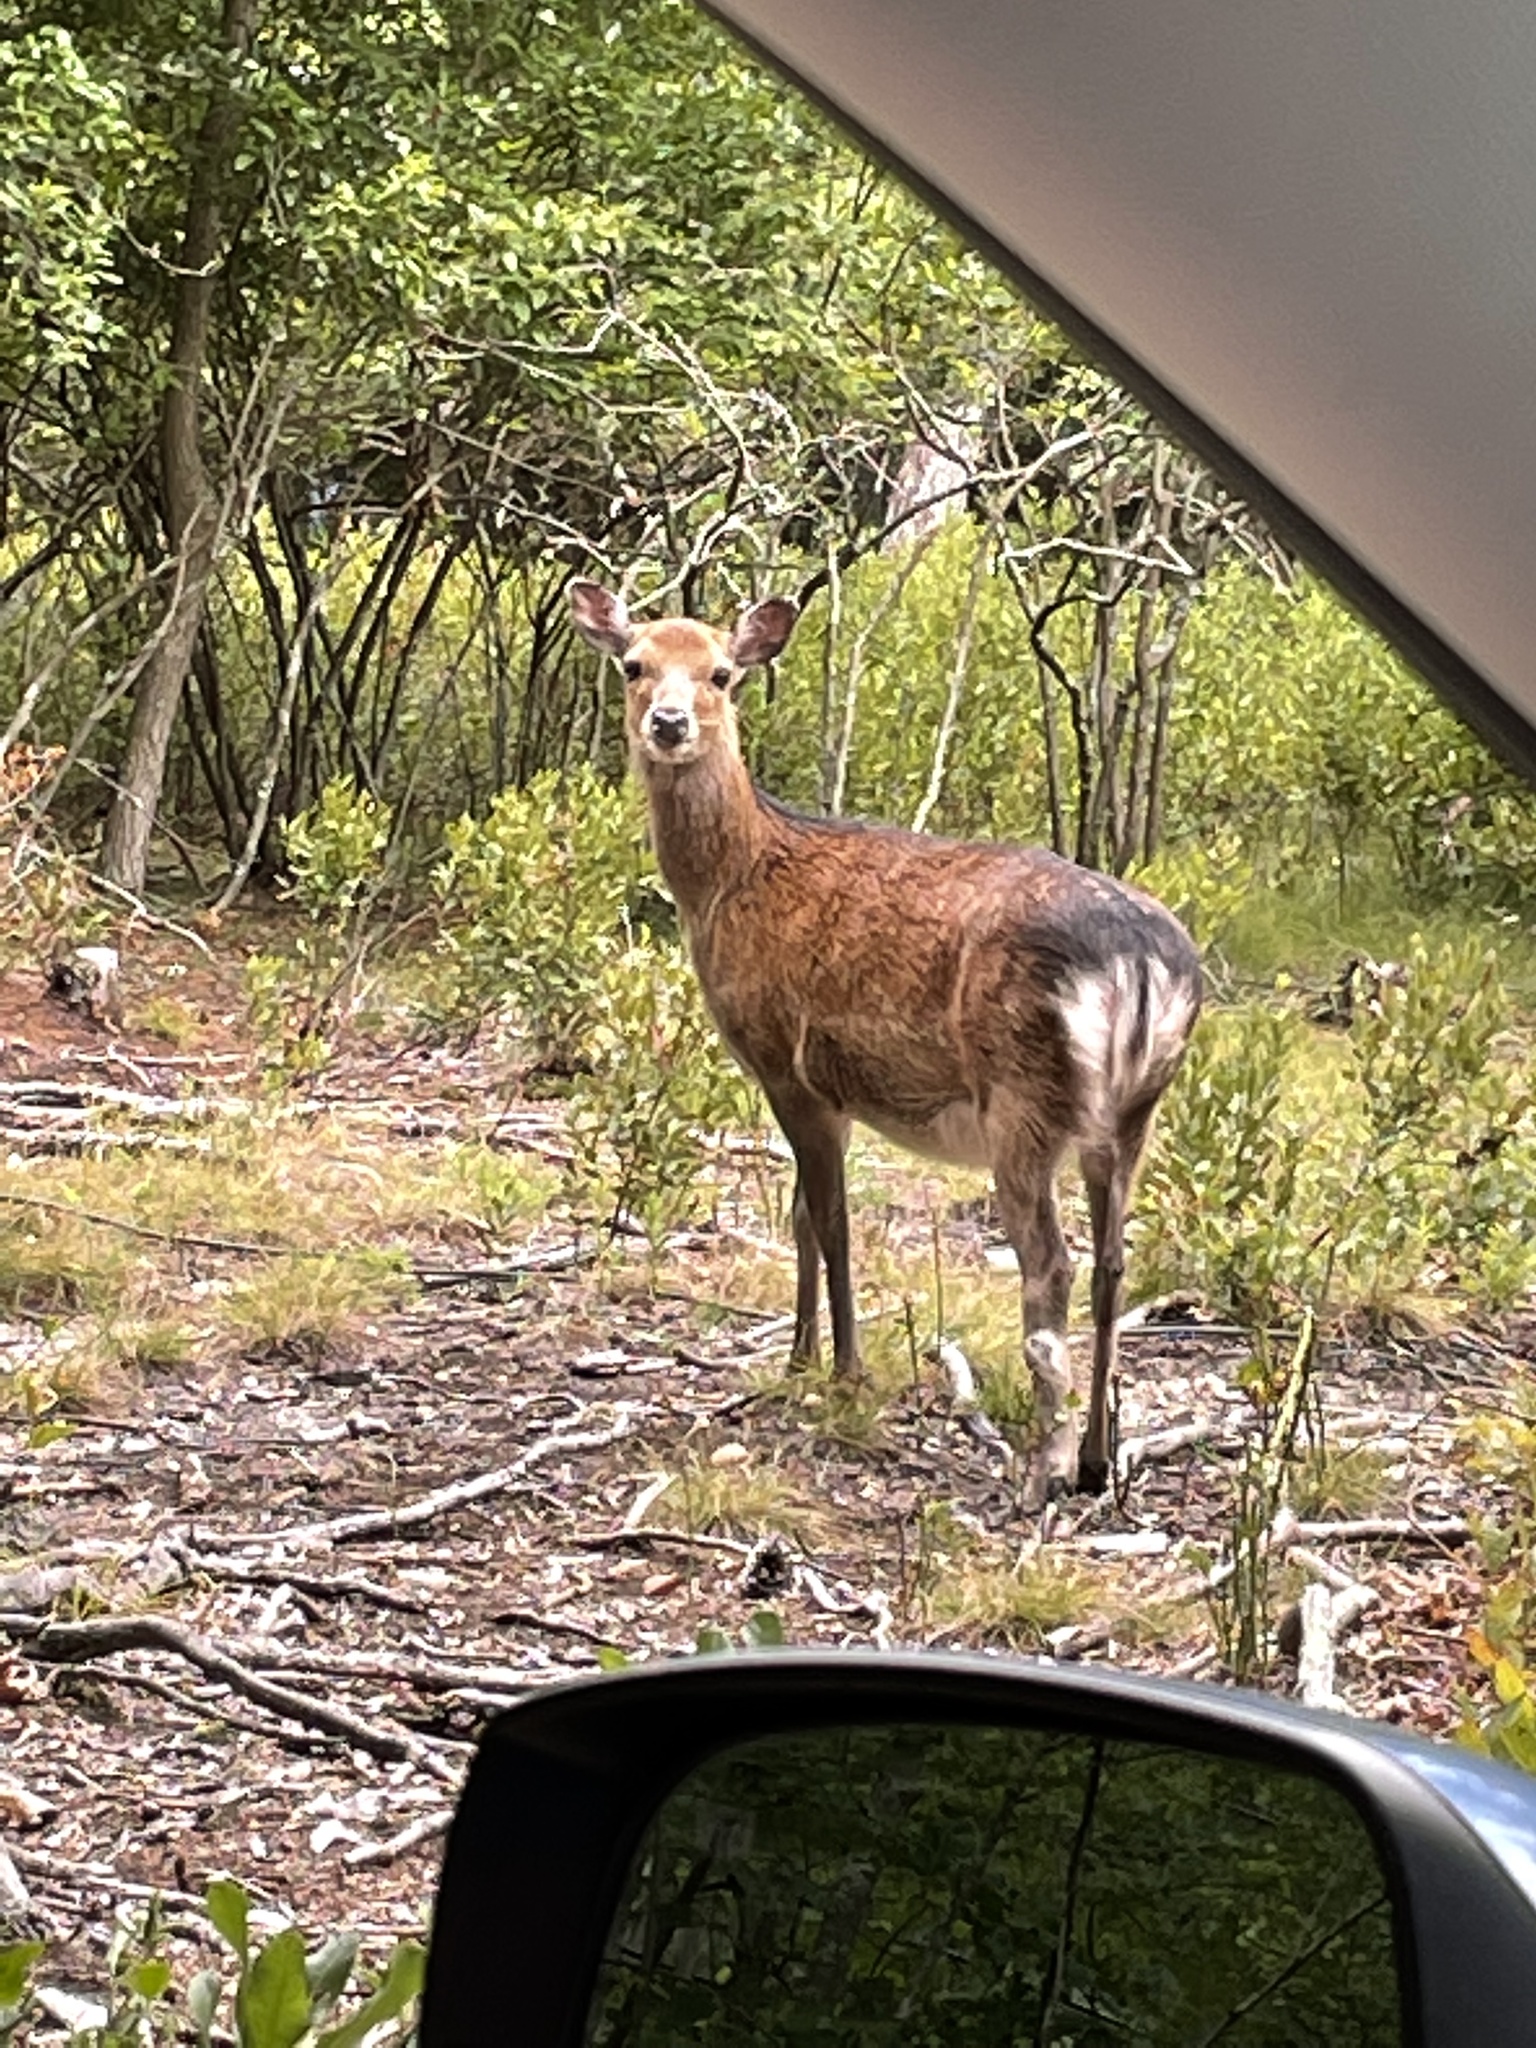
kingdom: Animalia
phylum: Chordata
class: Mammalia
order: Artiodactyla
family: Cervidae
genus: Cervus
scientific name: Cervus nippon
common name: Sika deer
